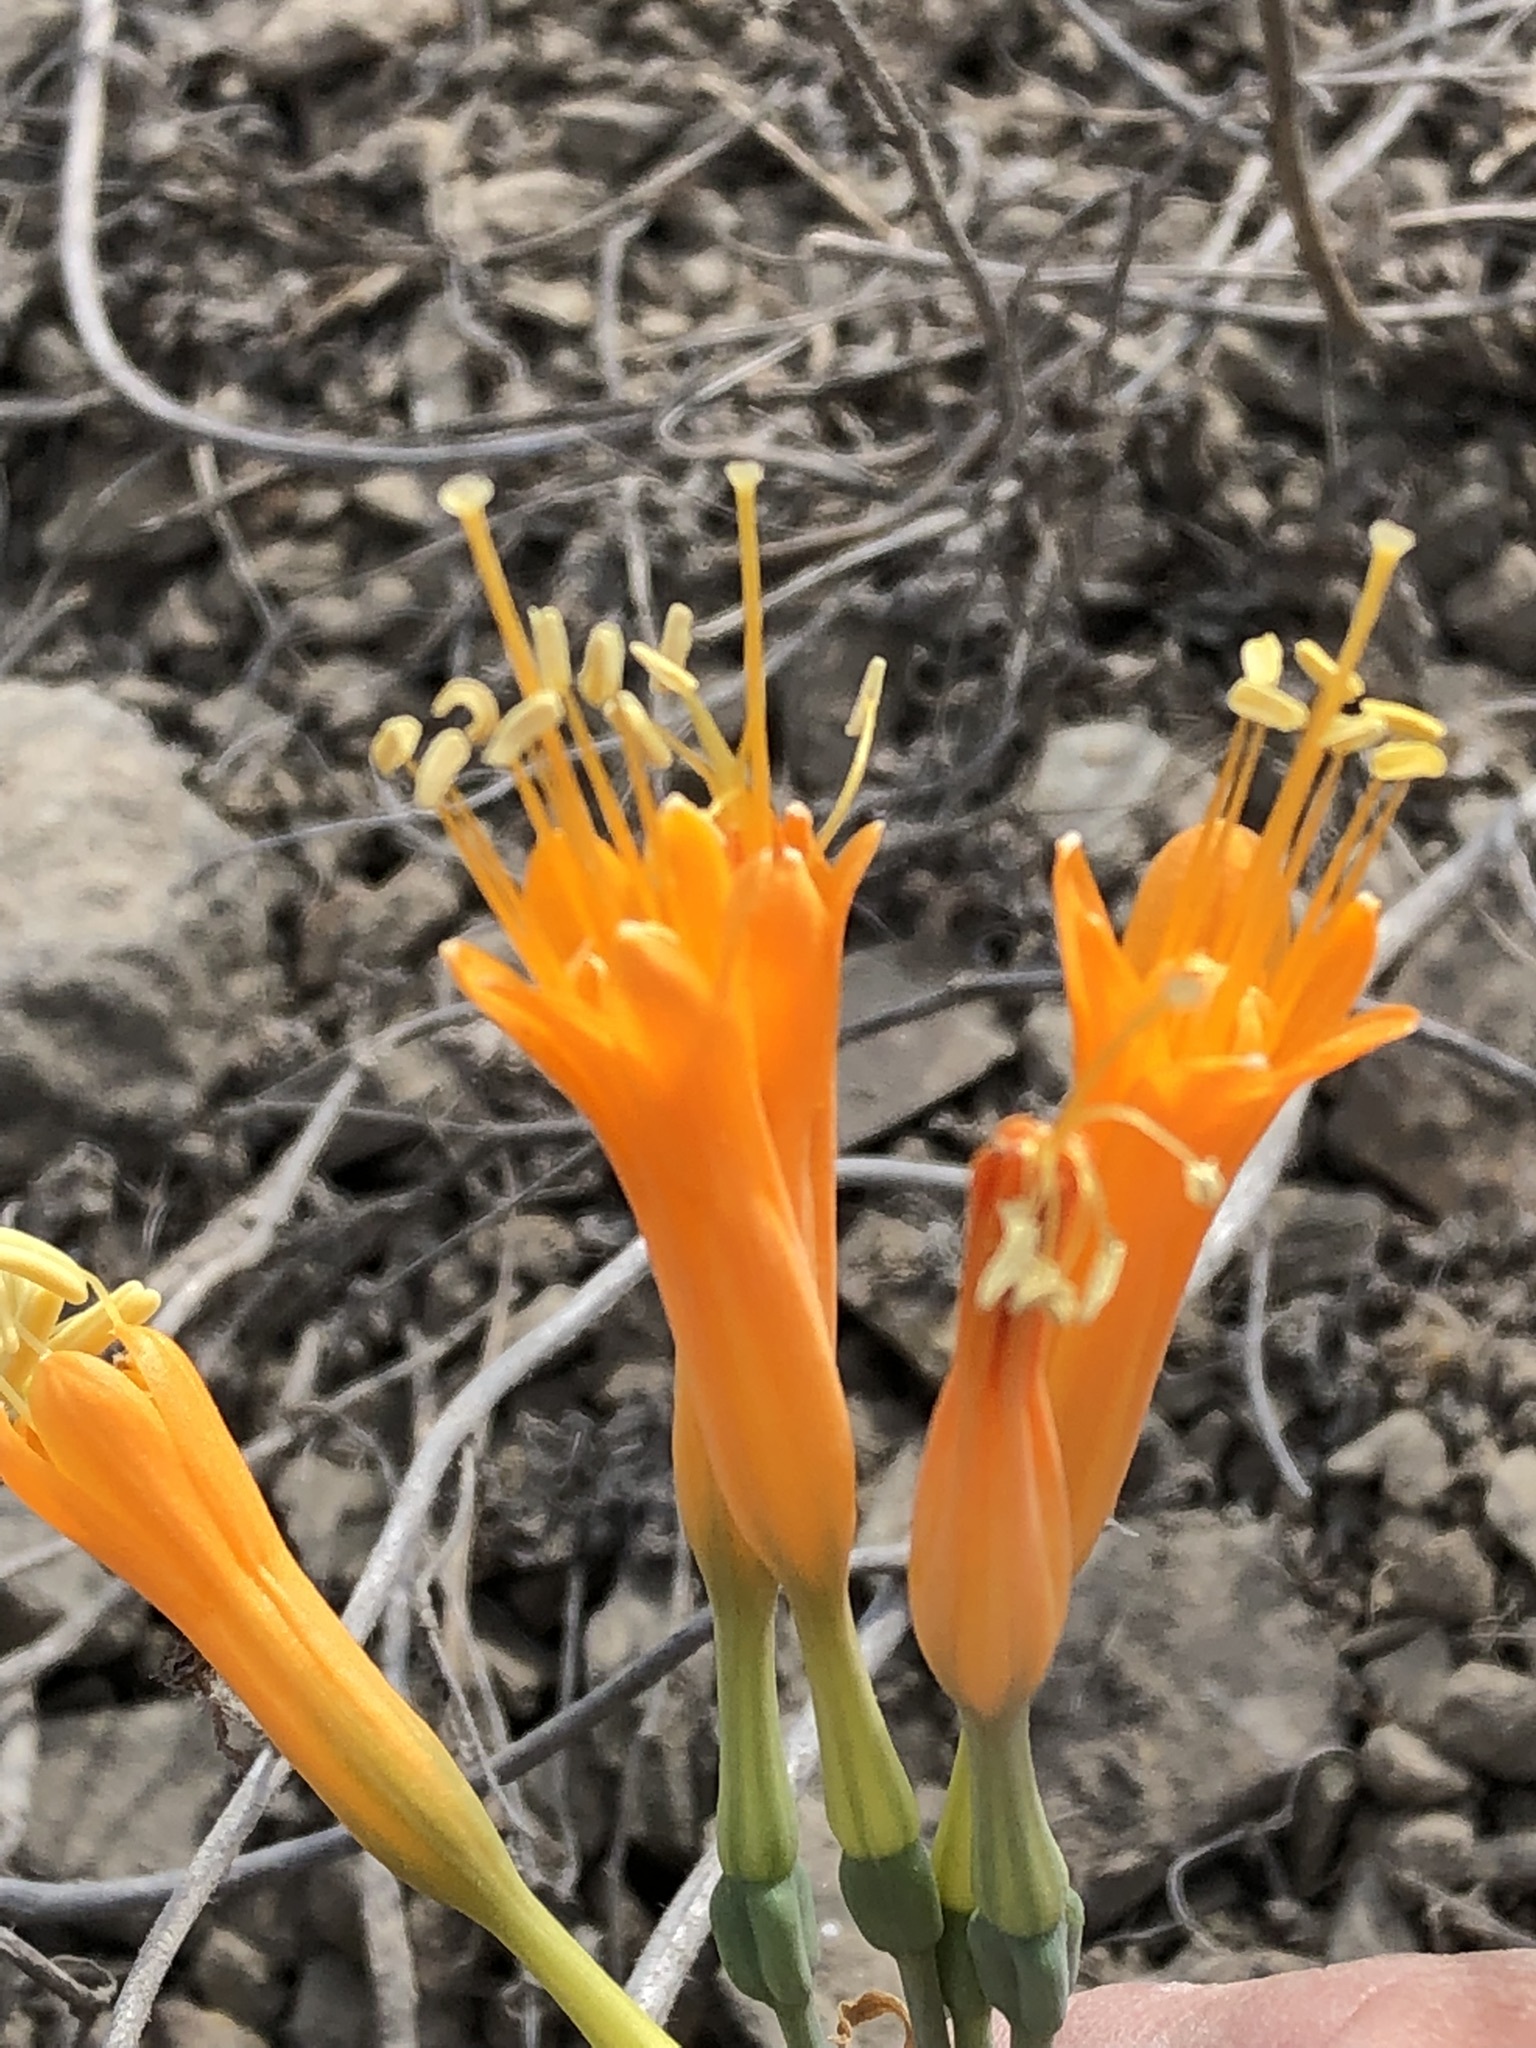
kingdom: Plantae
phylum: Tracheophyta
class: Liliopsida
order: Asparagales
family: Amaryllidaceae
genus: Stenomesson
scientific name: Stenomesson flavum
